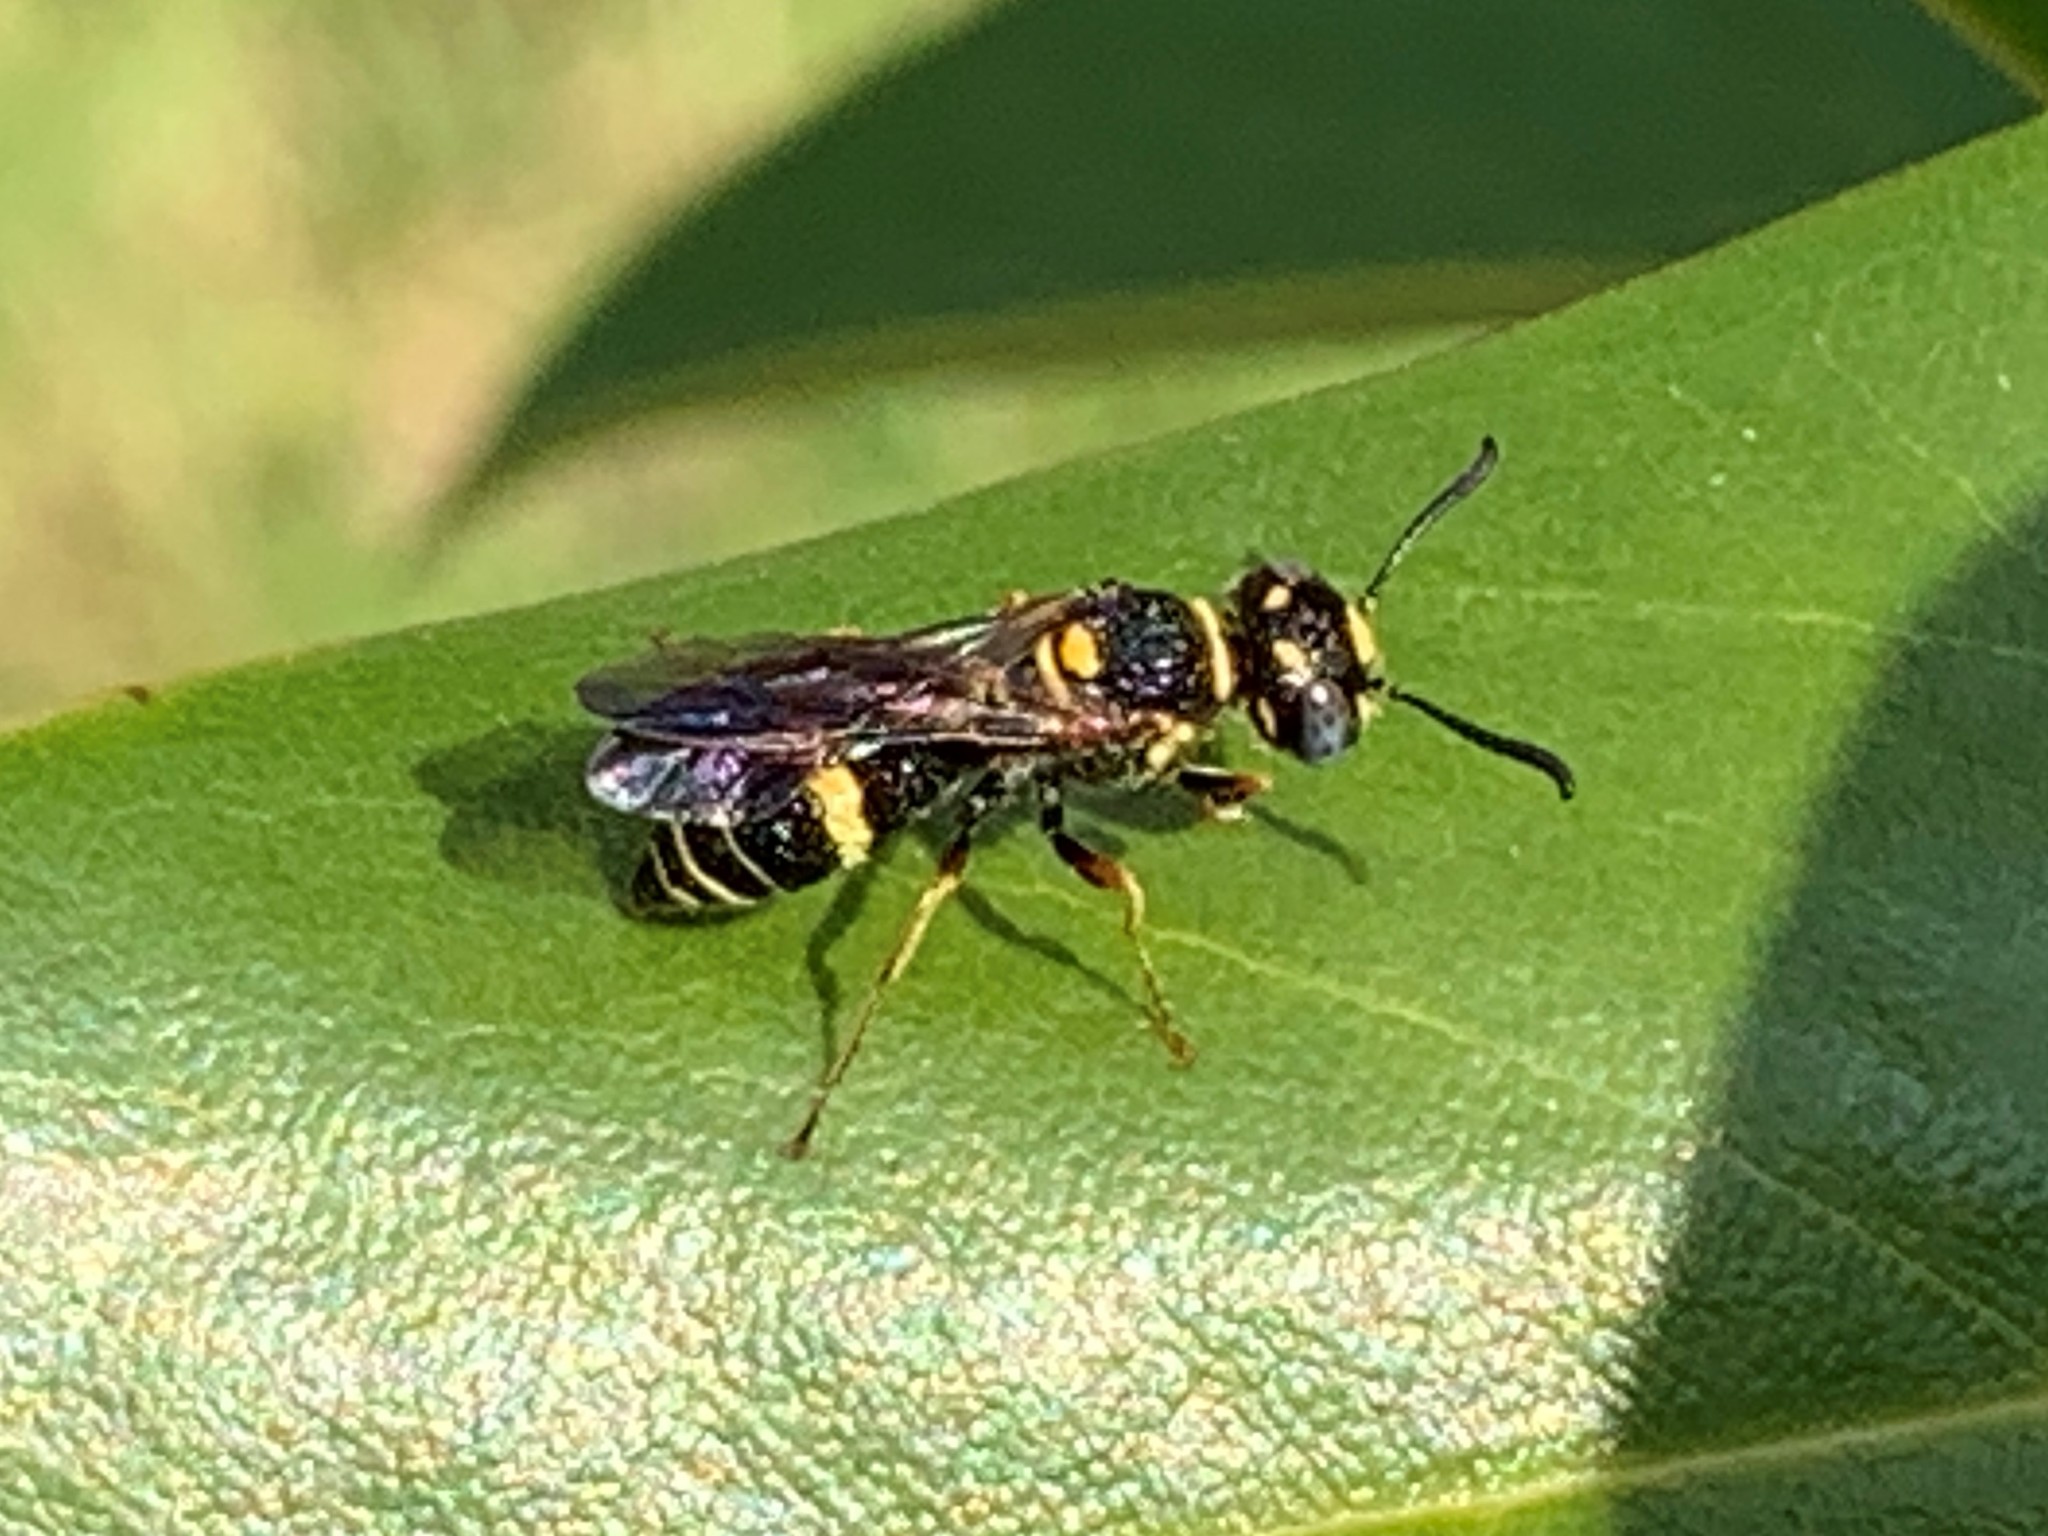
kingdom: Animalia
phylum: Arthropoda
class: Insecta
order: Hymenoptera
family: Crabronidae
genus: Philanthus
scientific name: Philanthus gibbosus
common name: Humped beewolf
